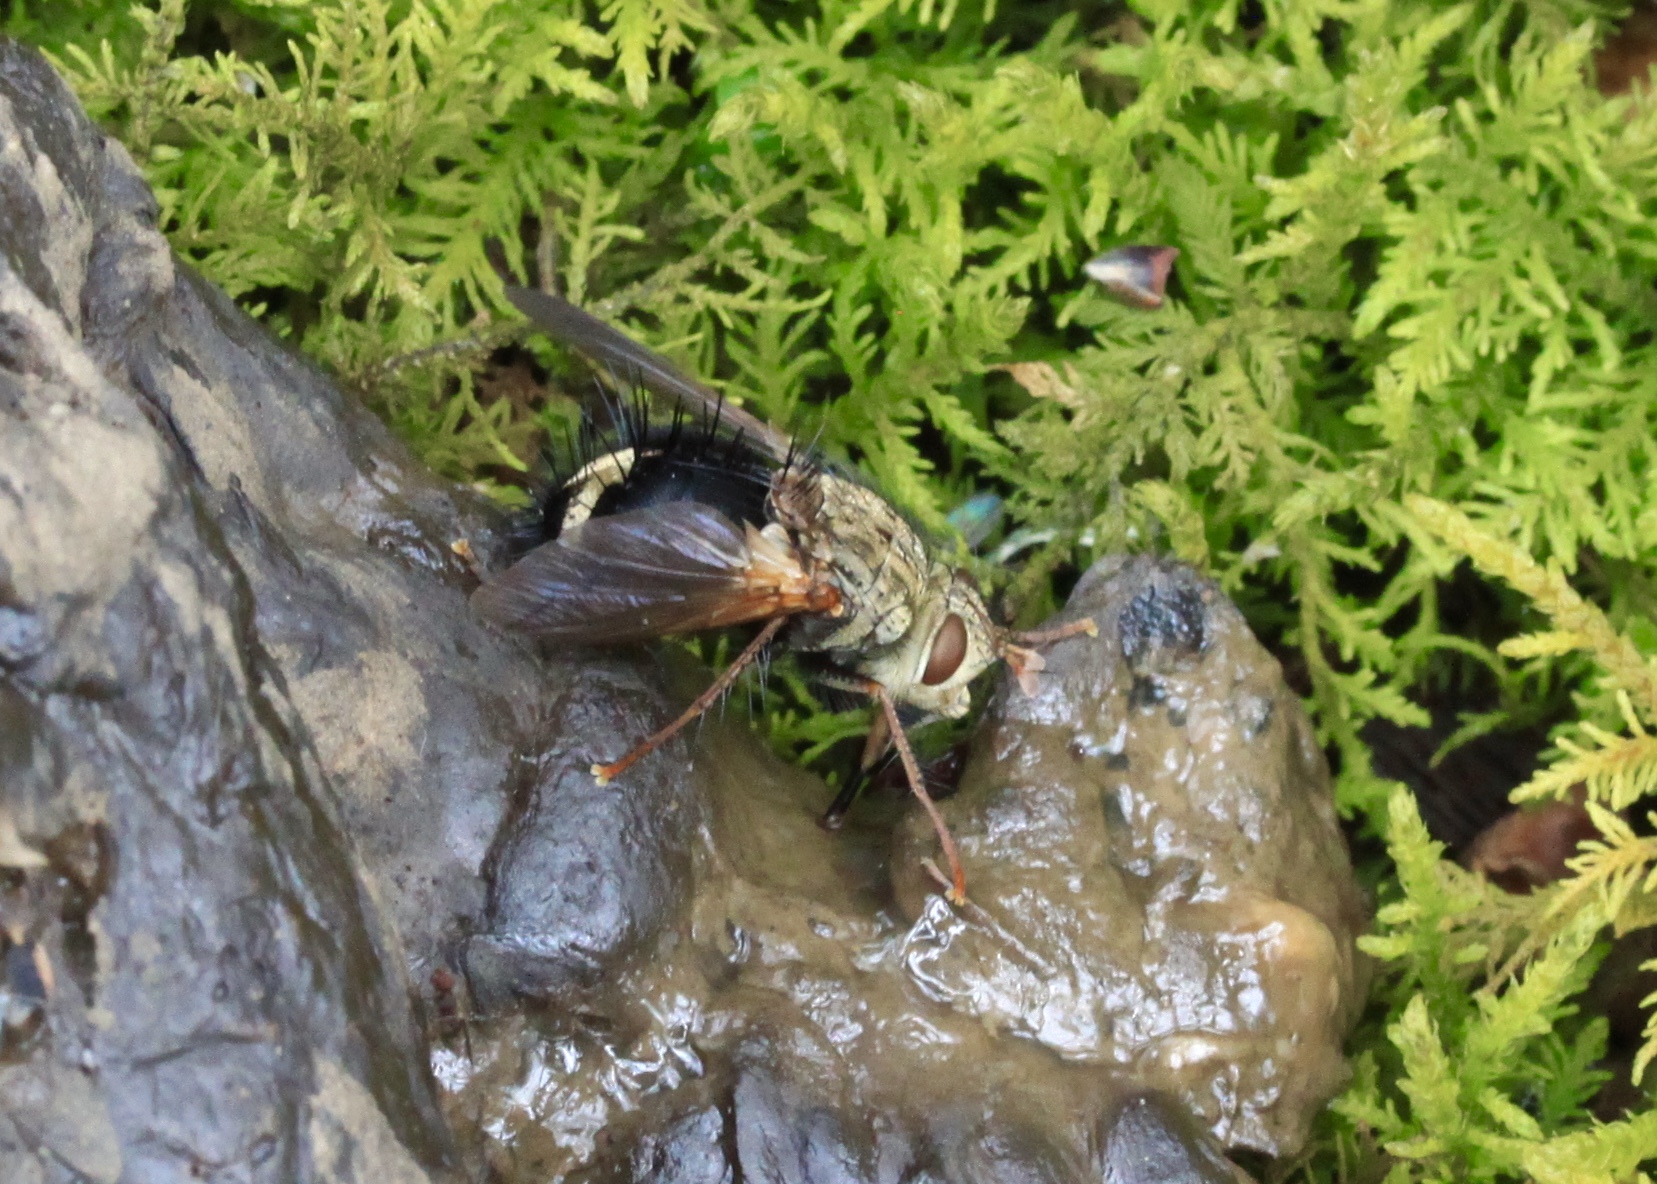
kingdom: Animalia
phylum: Arthropoda
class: Insecta
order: Diptera
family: Tachinidae
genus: Epalpus
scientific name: Epalpus signifer
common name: Early tachinid fly
